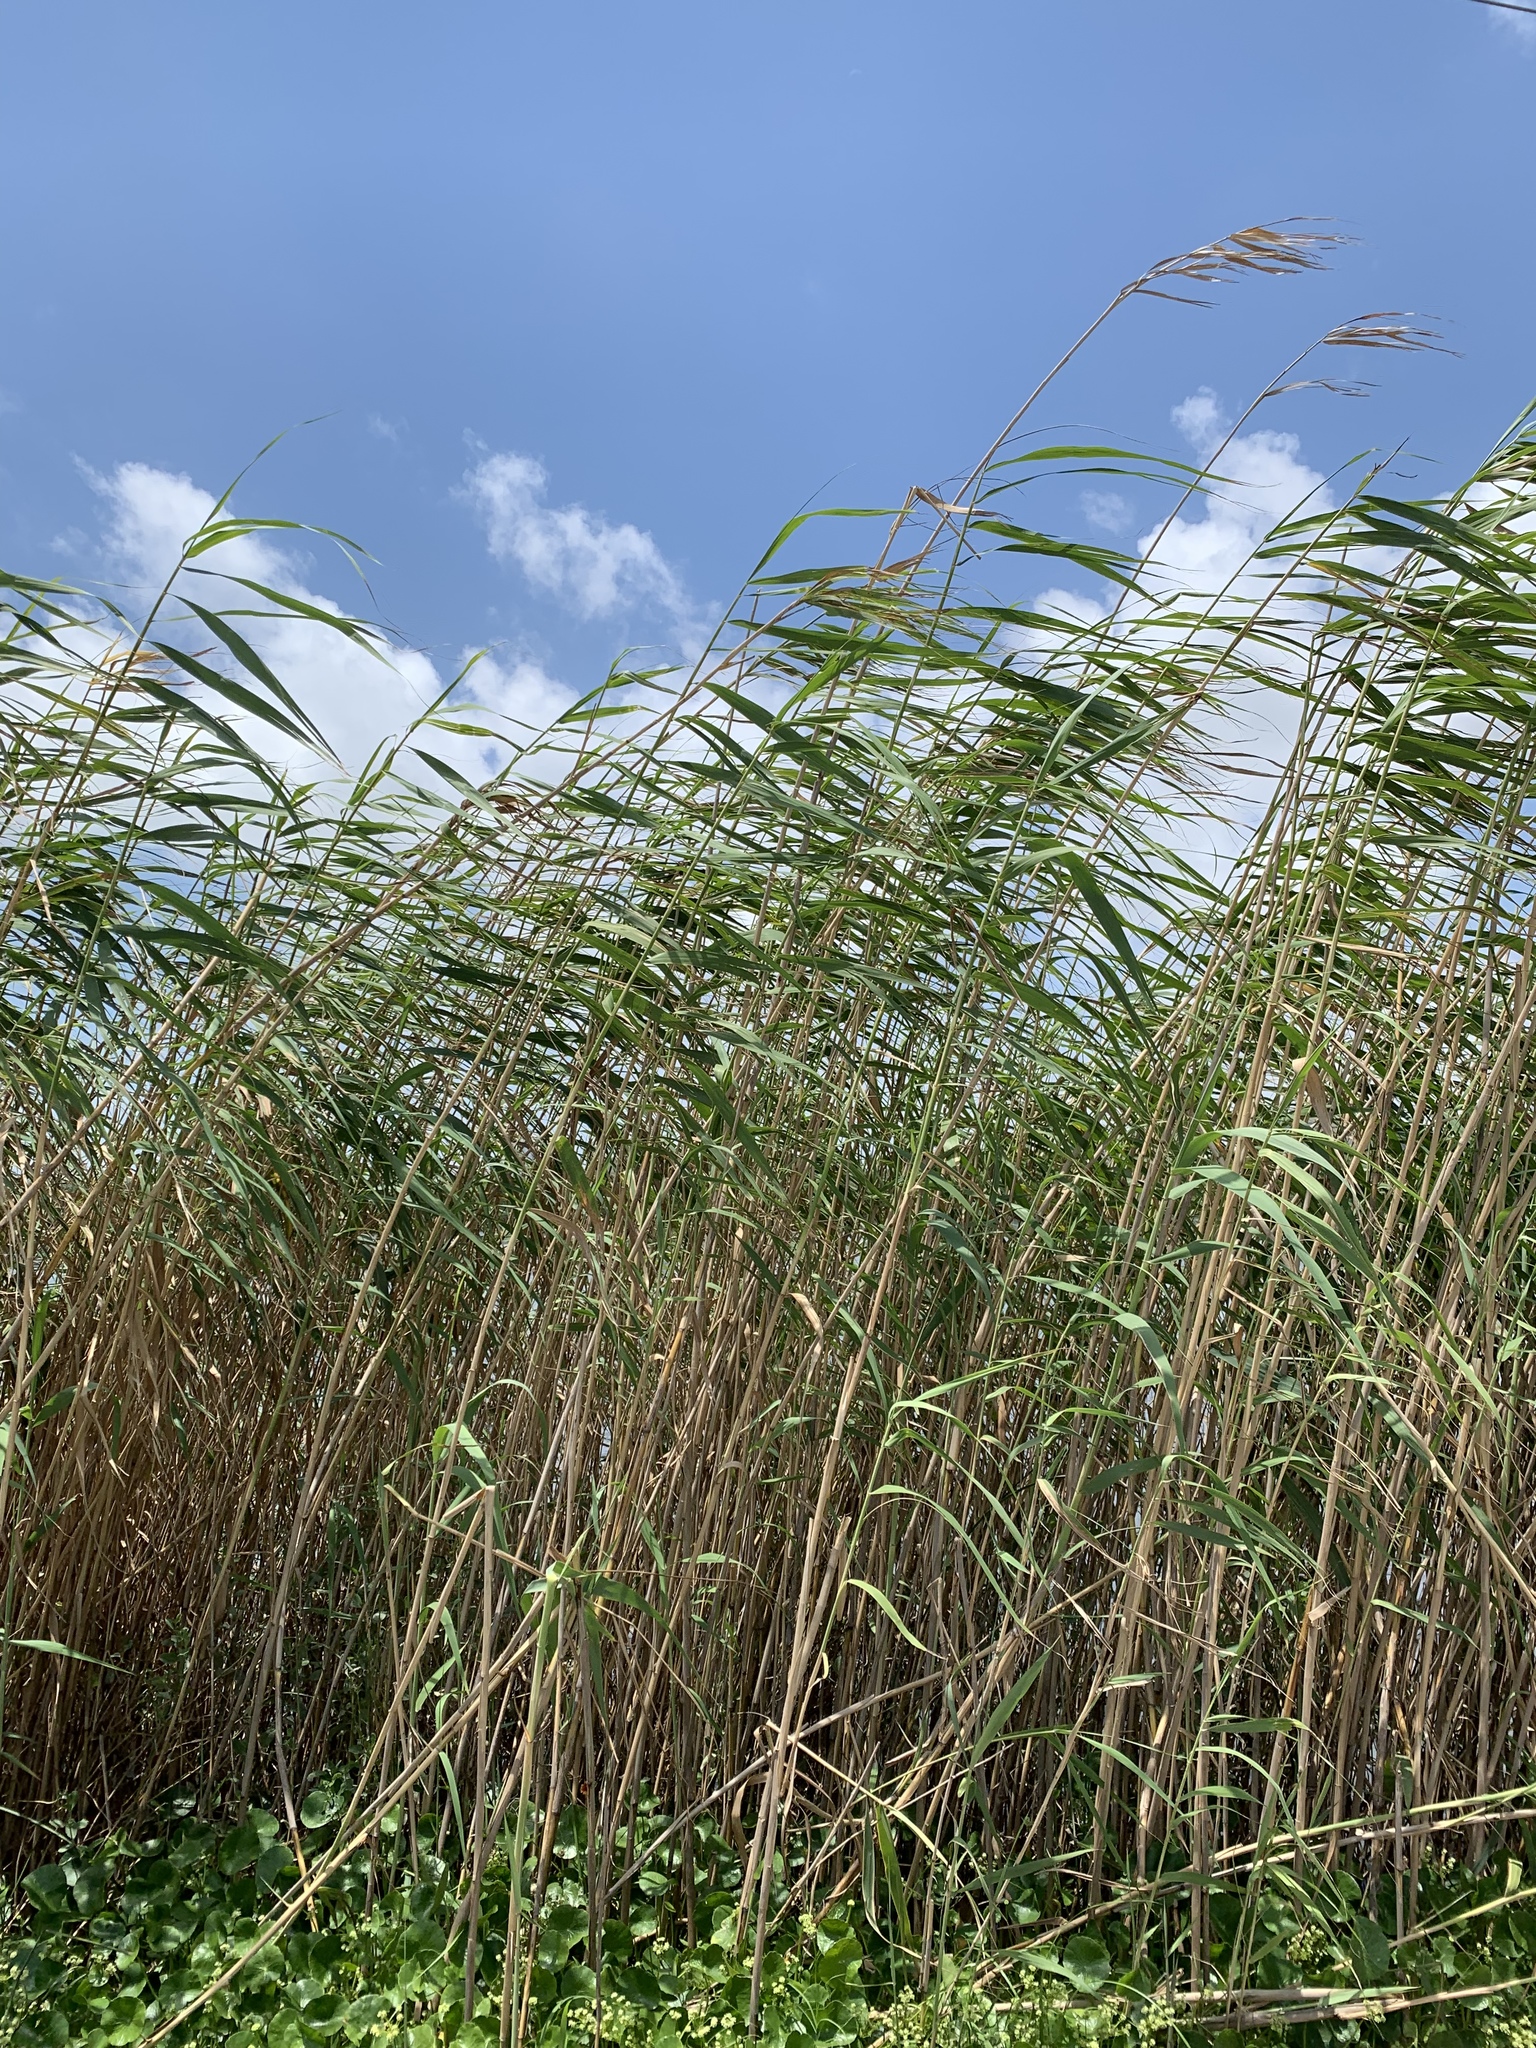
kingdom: Plantae
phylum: Tracheophyta
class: Liliopsida
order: Poales
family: Poaceae
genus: Phragmites
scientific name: Phragmites australis
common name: Common reed
